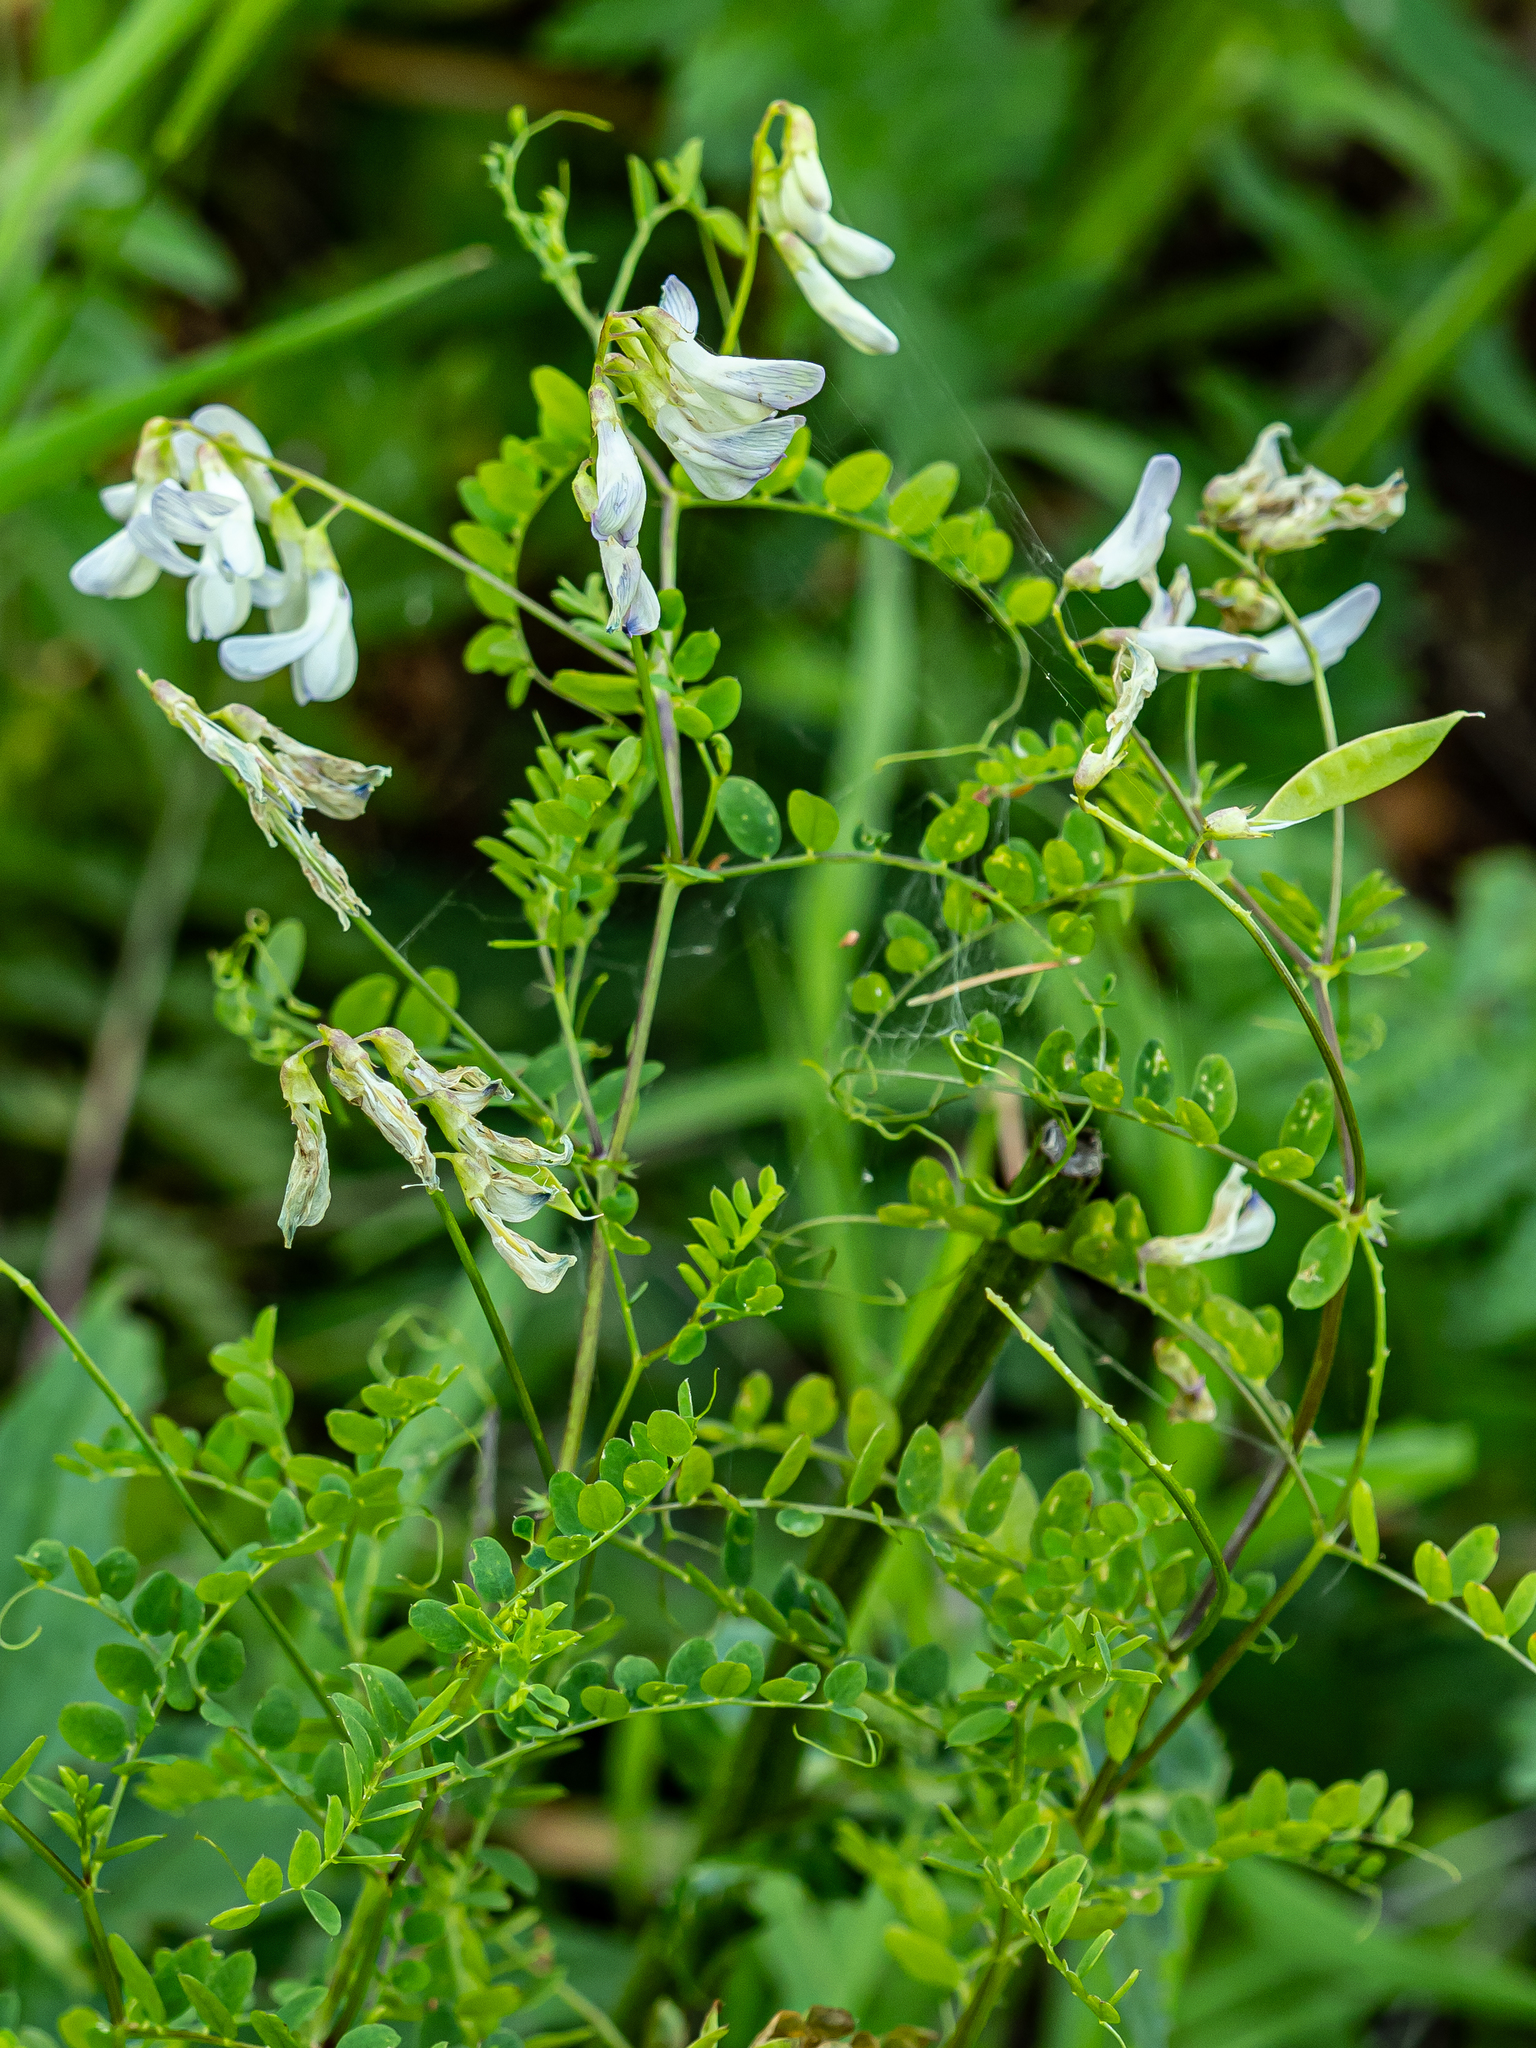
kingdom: Plantae
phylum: Tracheophyta
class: Magnoliopsida
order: Fabales
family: Fabaceae
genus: Vicia
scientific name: Vicia sylvatica
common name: Wood vetch
